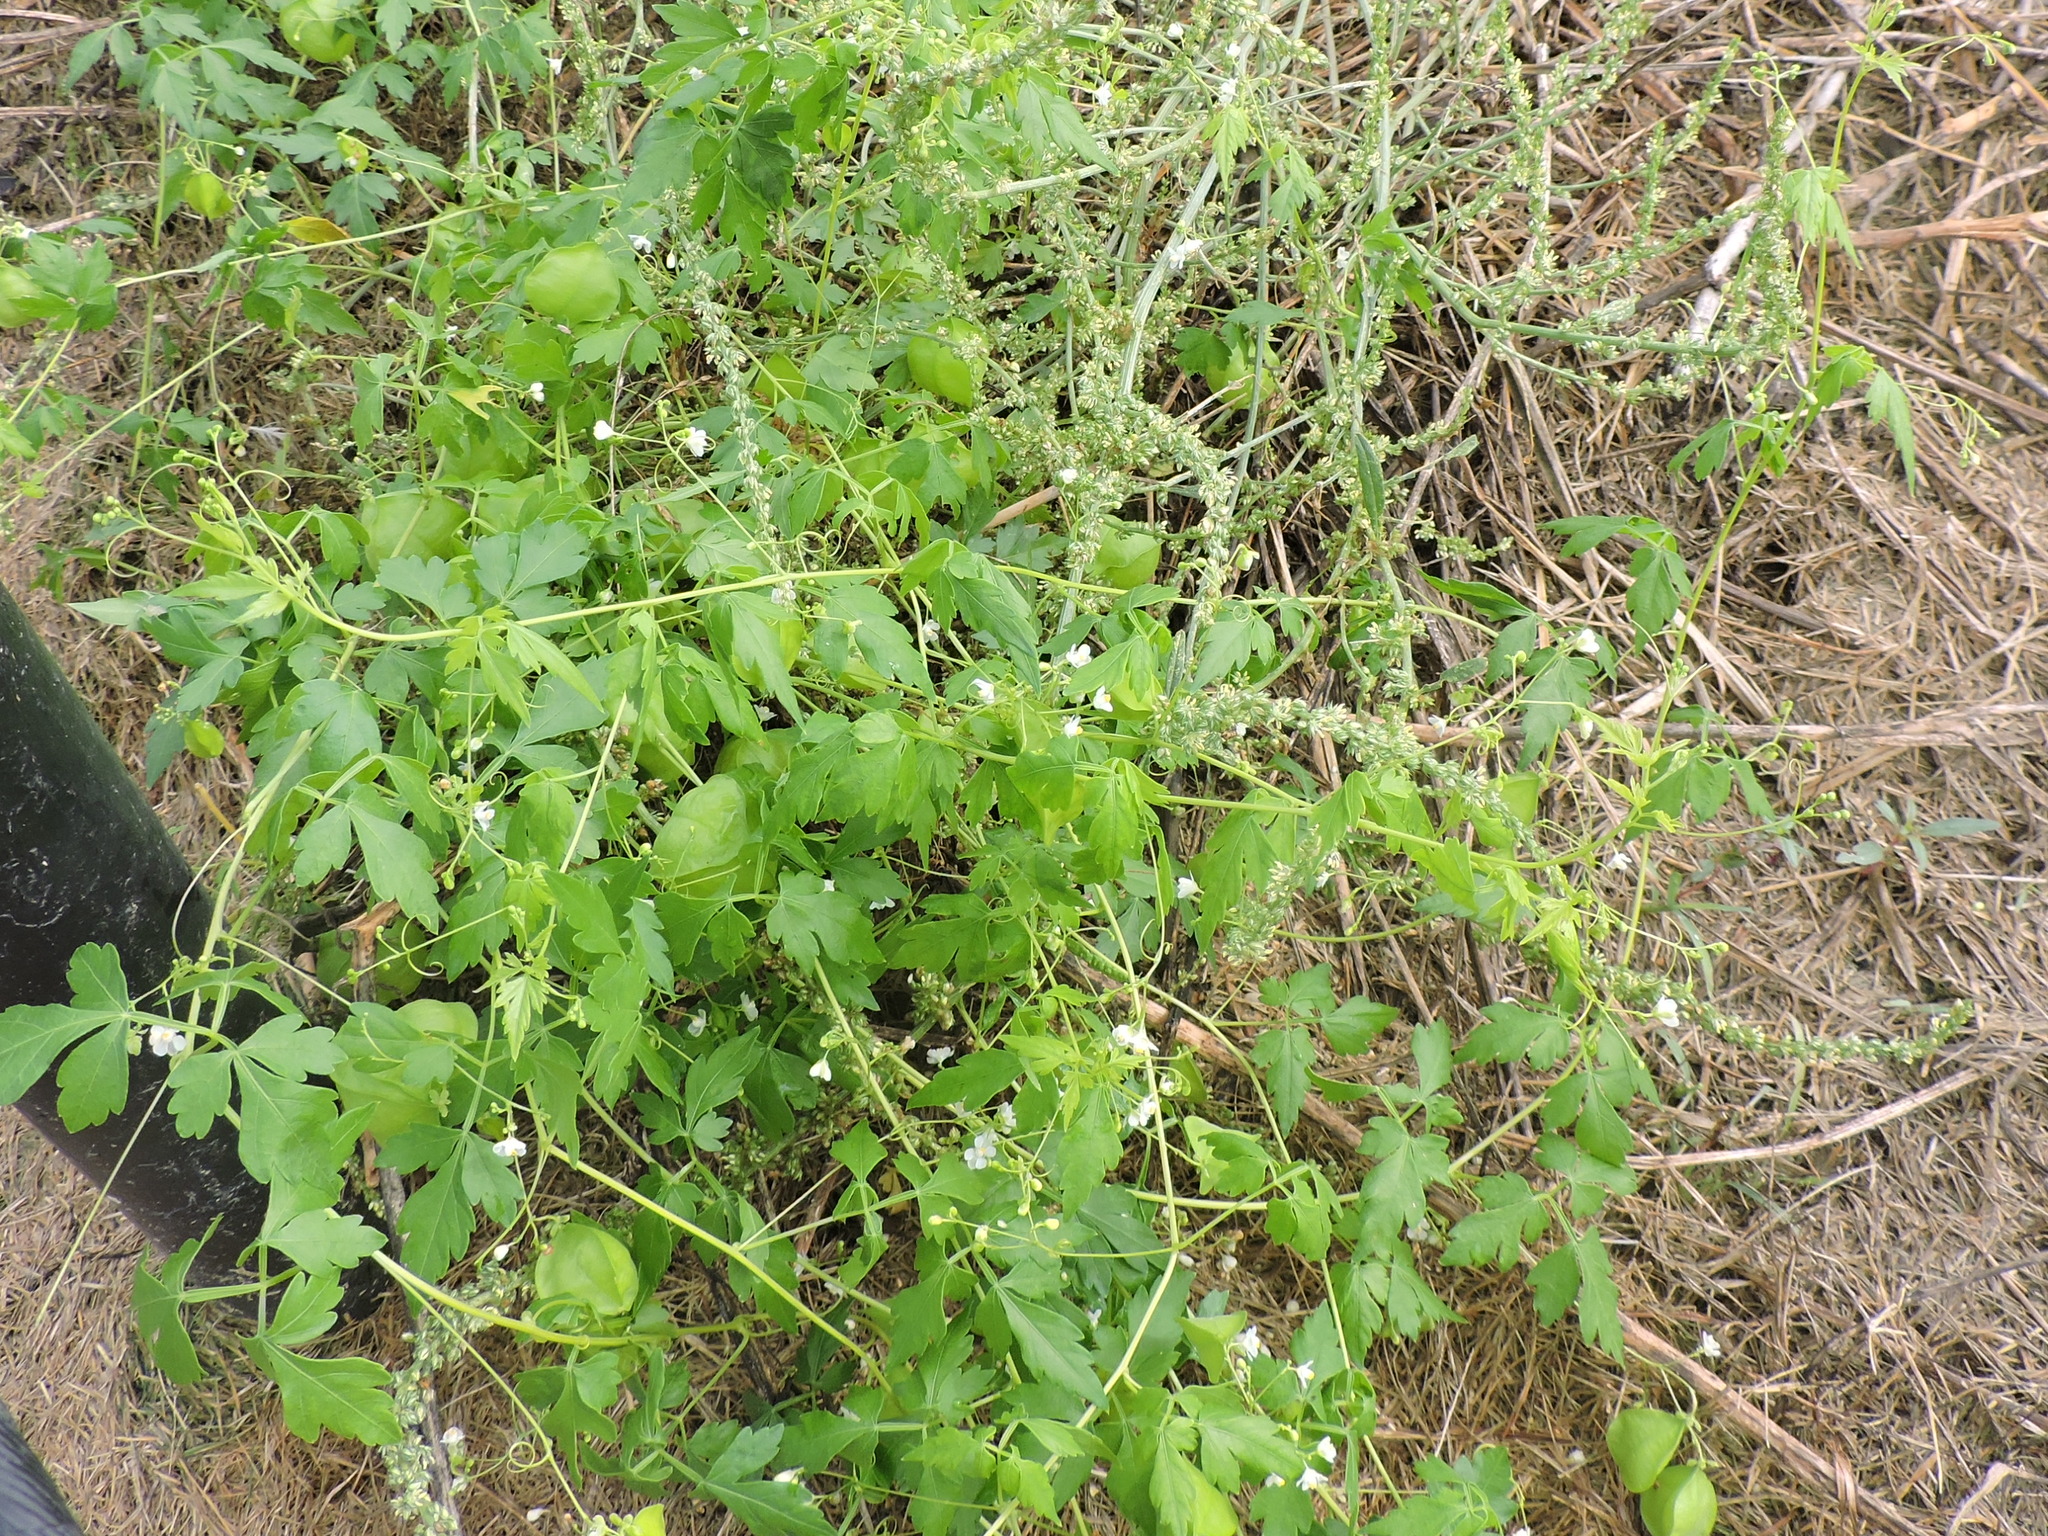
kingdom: Plantae
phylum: Tracheophyta
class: Magnoliopsida
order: Sapindales
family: Sapindaceae
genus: Cardiospermum
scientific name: Cardiospermum halicacabum
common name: Balloon vine
